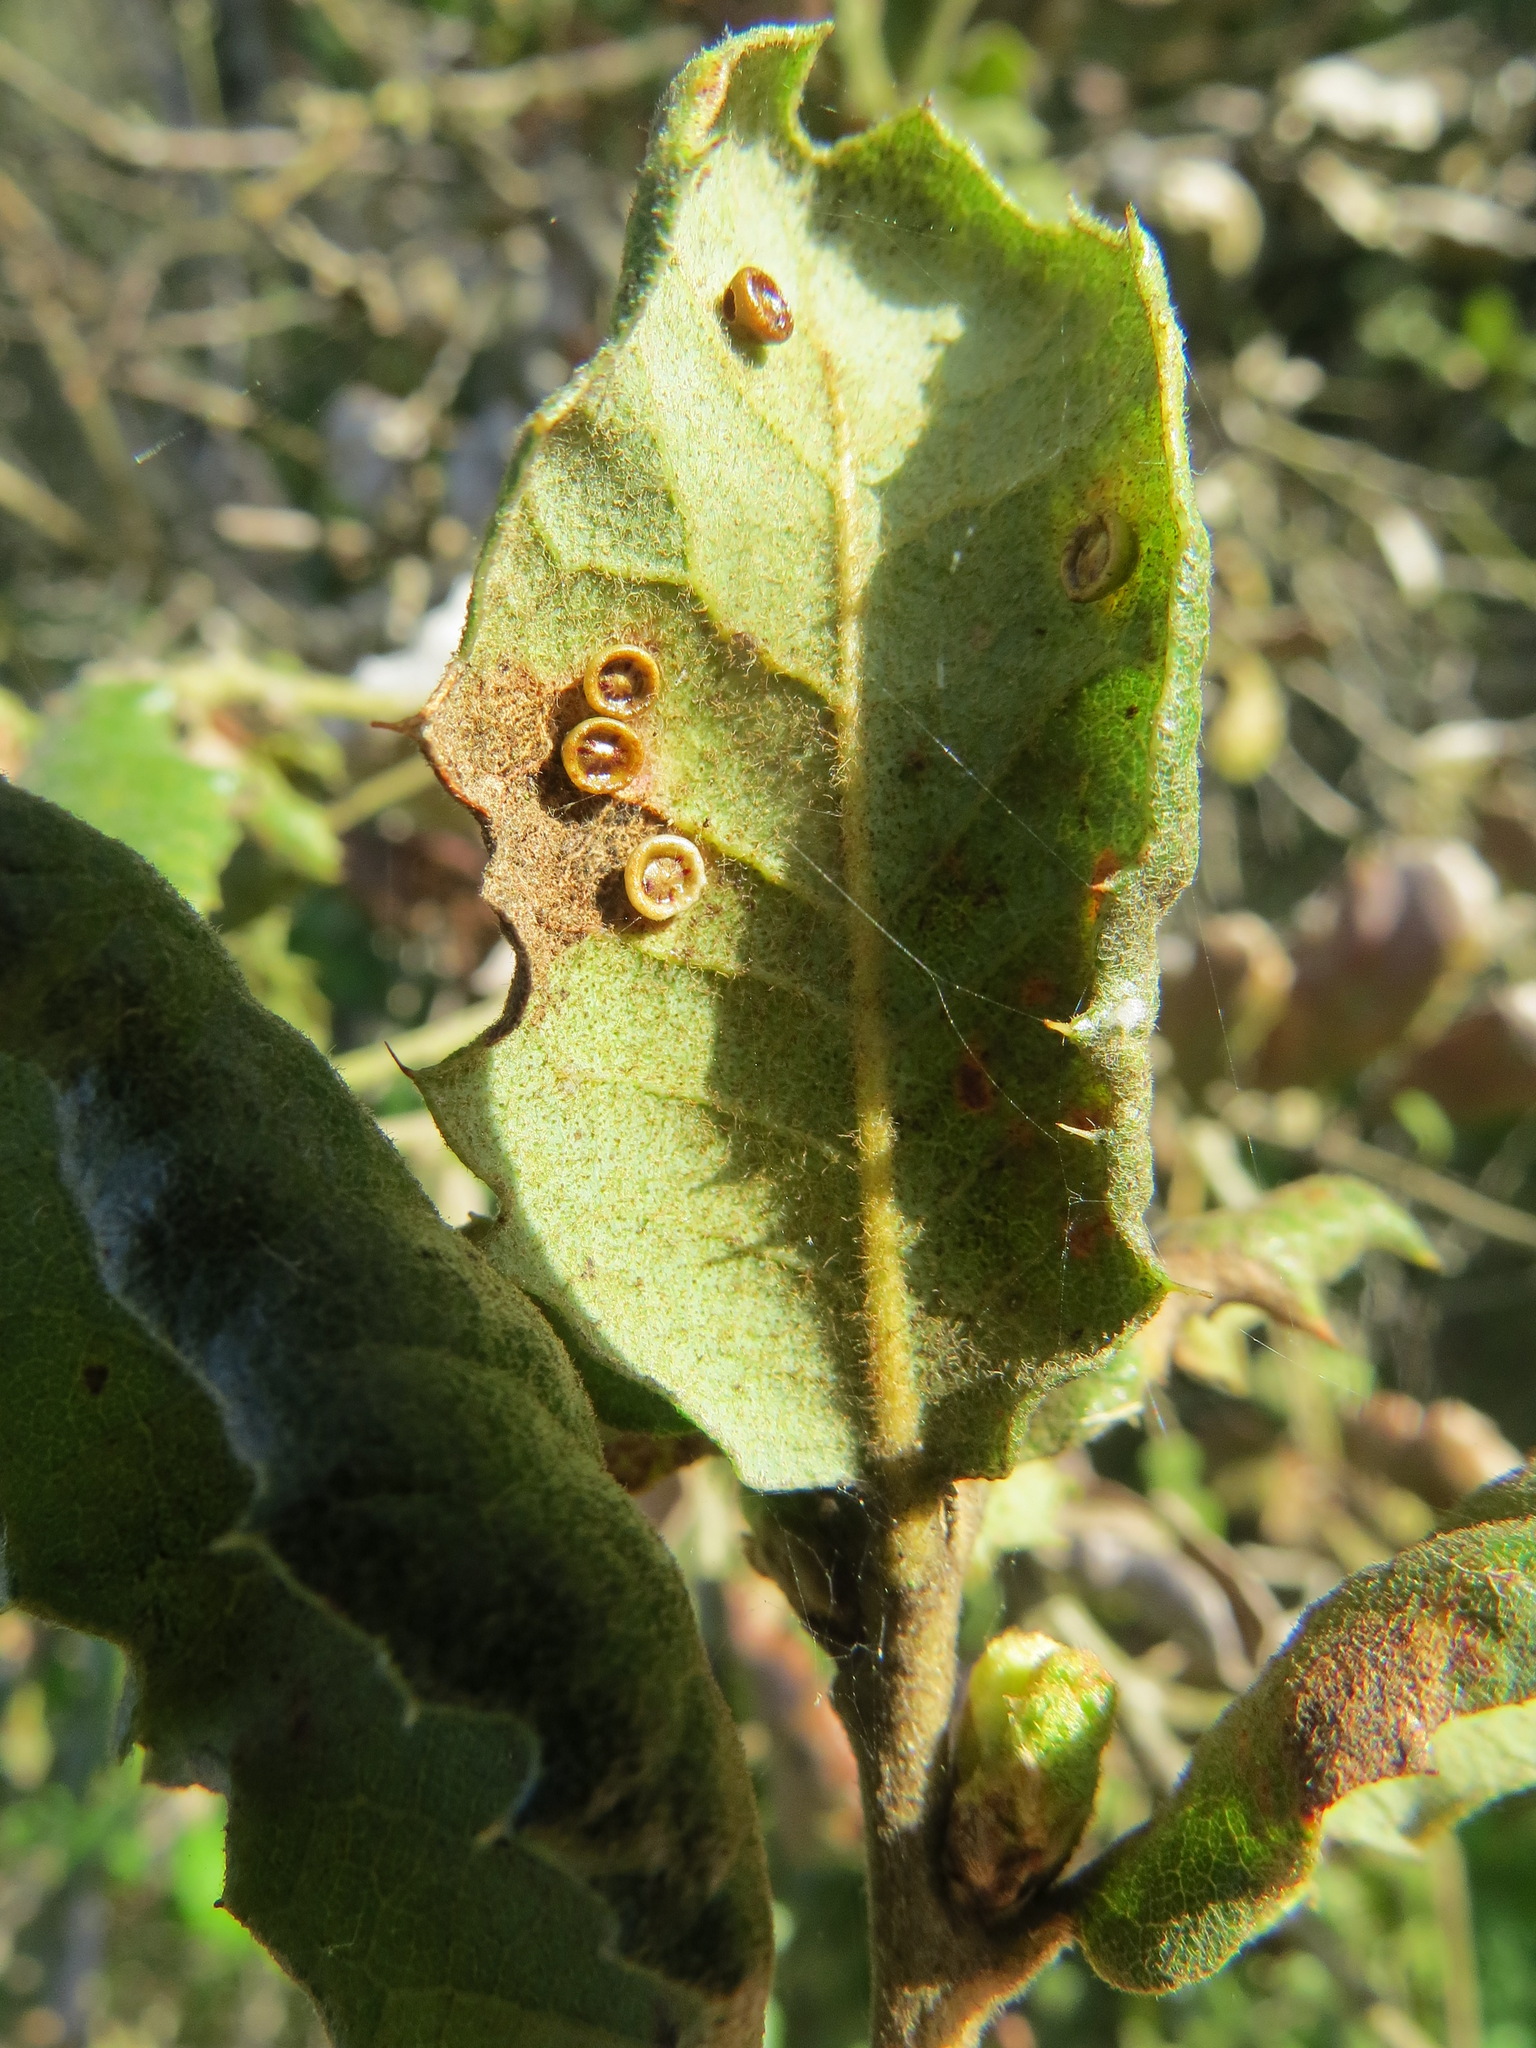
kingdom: Animalia
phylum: Arthropoda
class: Insecta
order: Hymenoptera
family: Cynipidae
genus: Andricus
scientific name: Andricus
